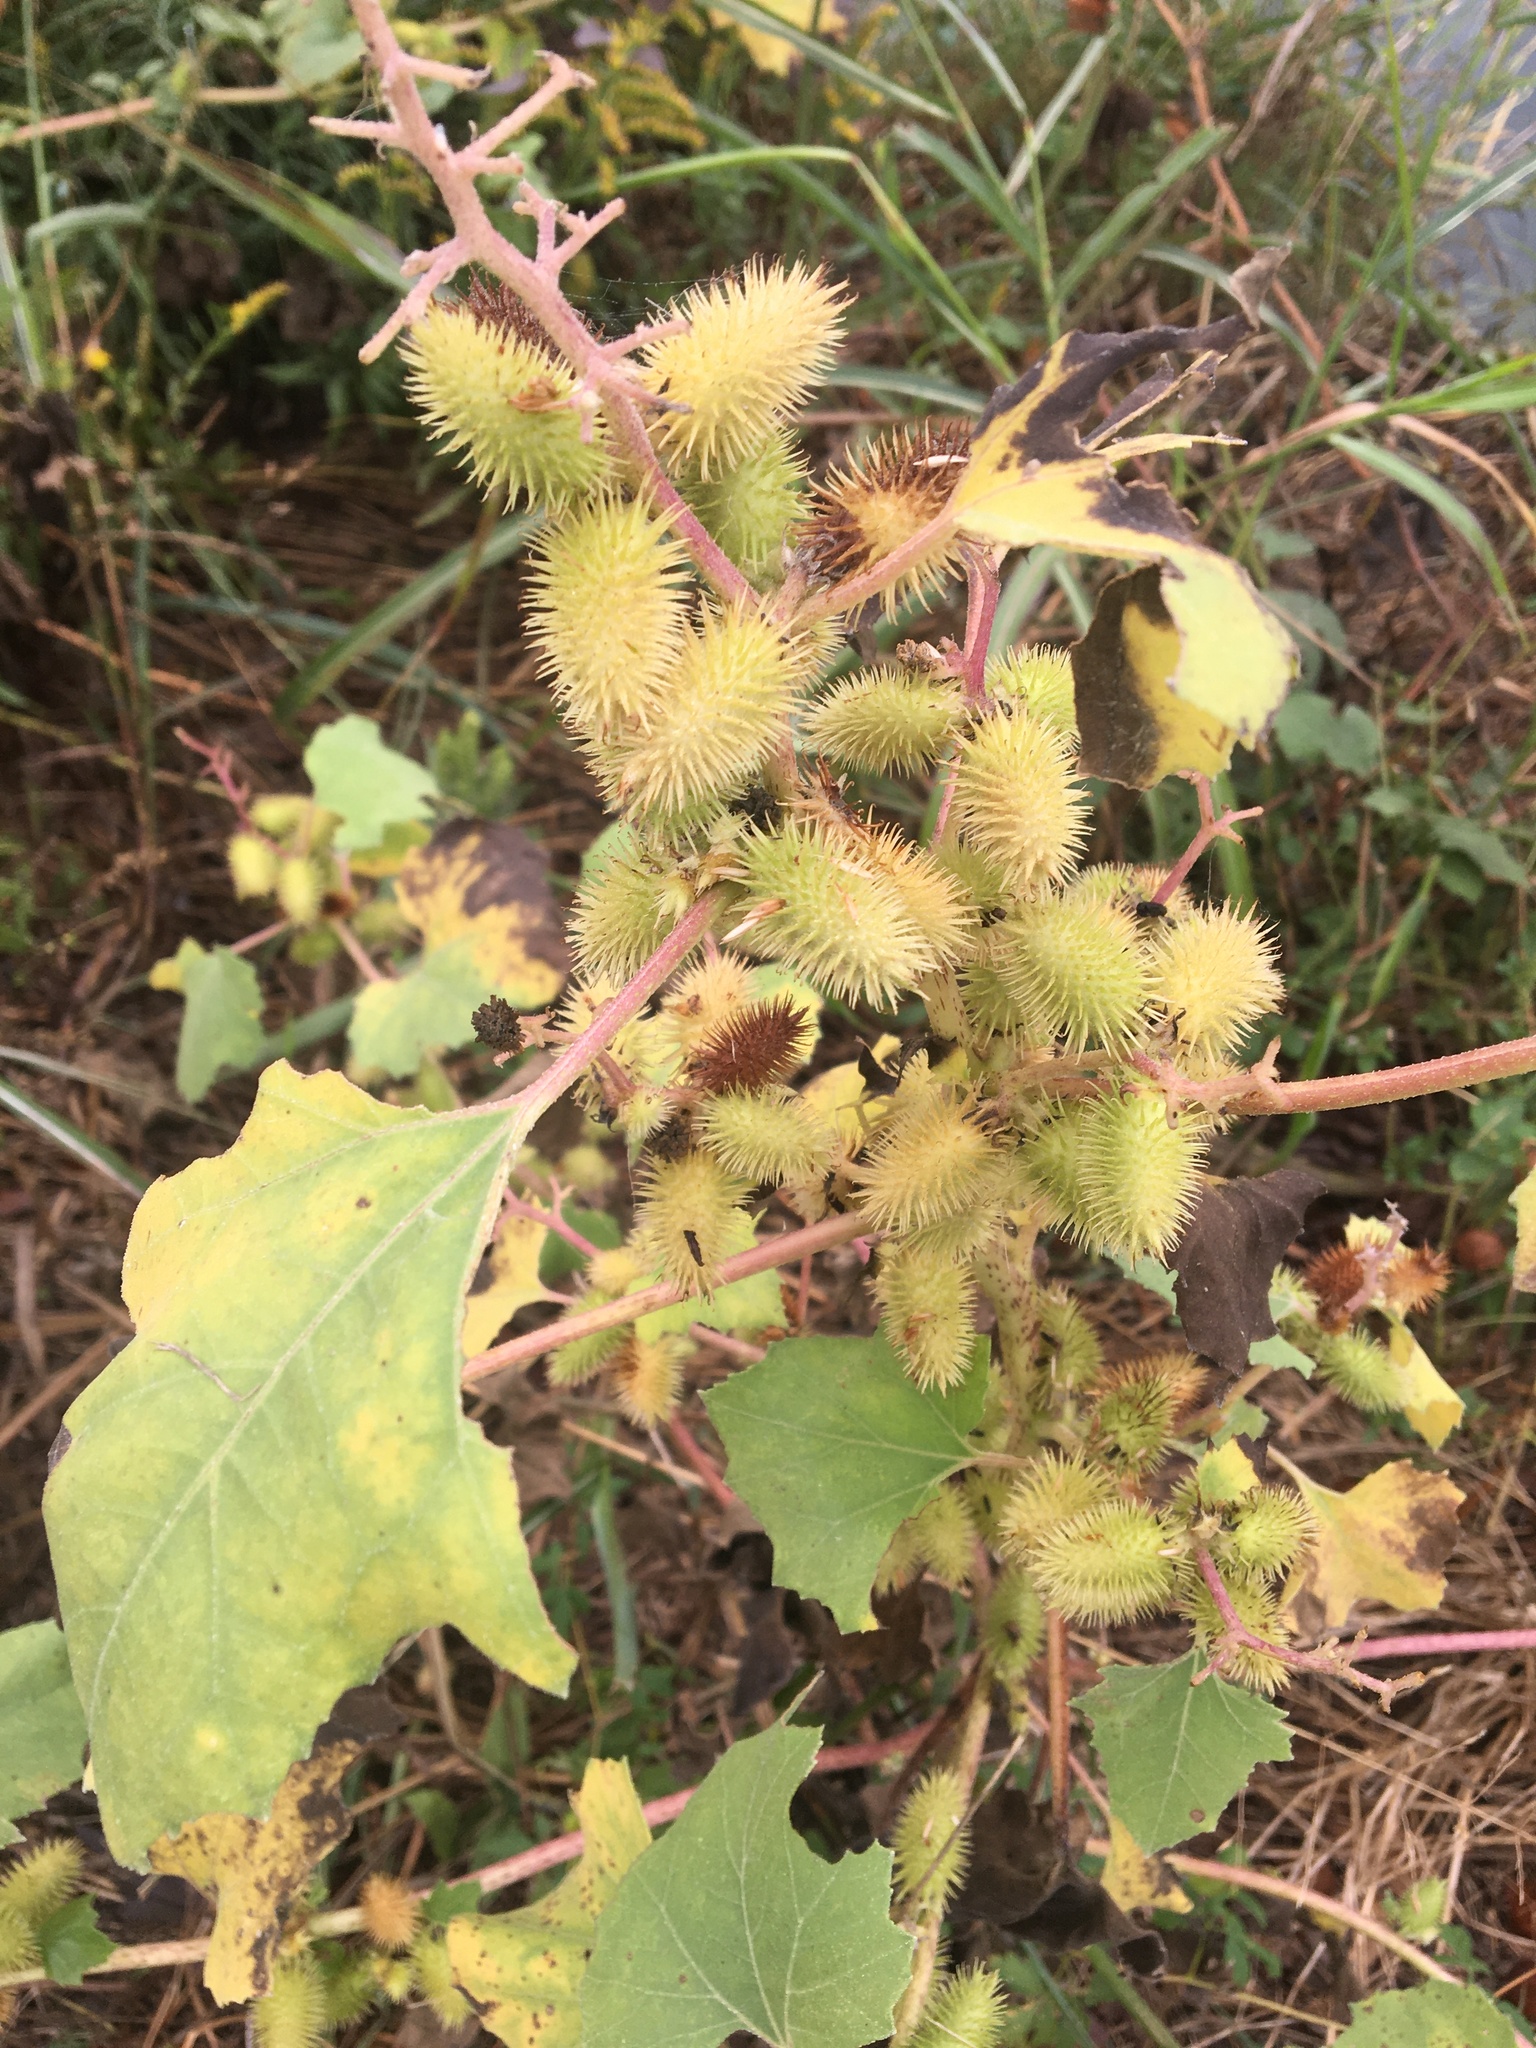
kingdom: Plantae
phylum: Tracheophyta
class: Magnoliopsida
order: Asterales
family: Asteraceae
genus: Xanthium
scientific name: Xanthium strumarium
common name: Rough cocklebur
